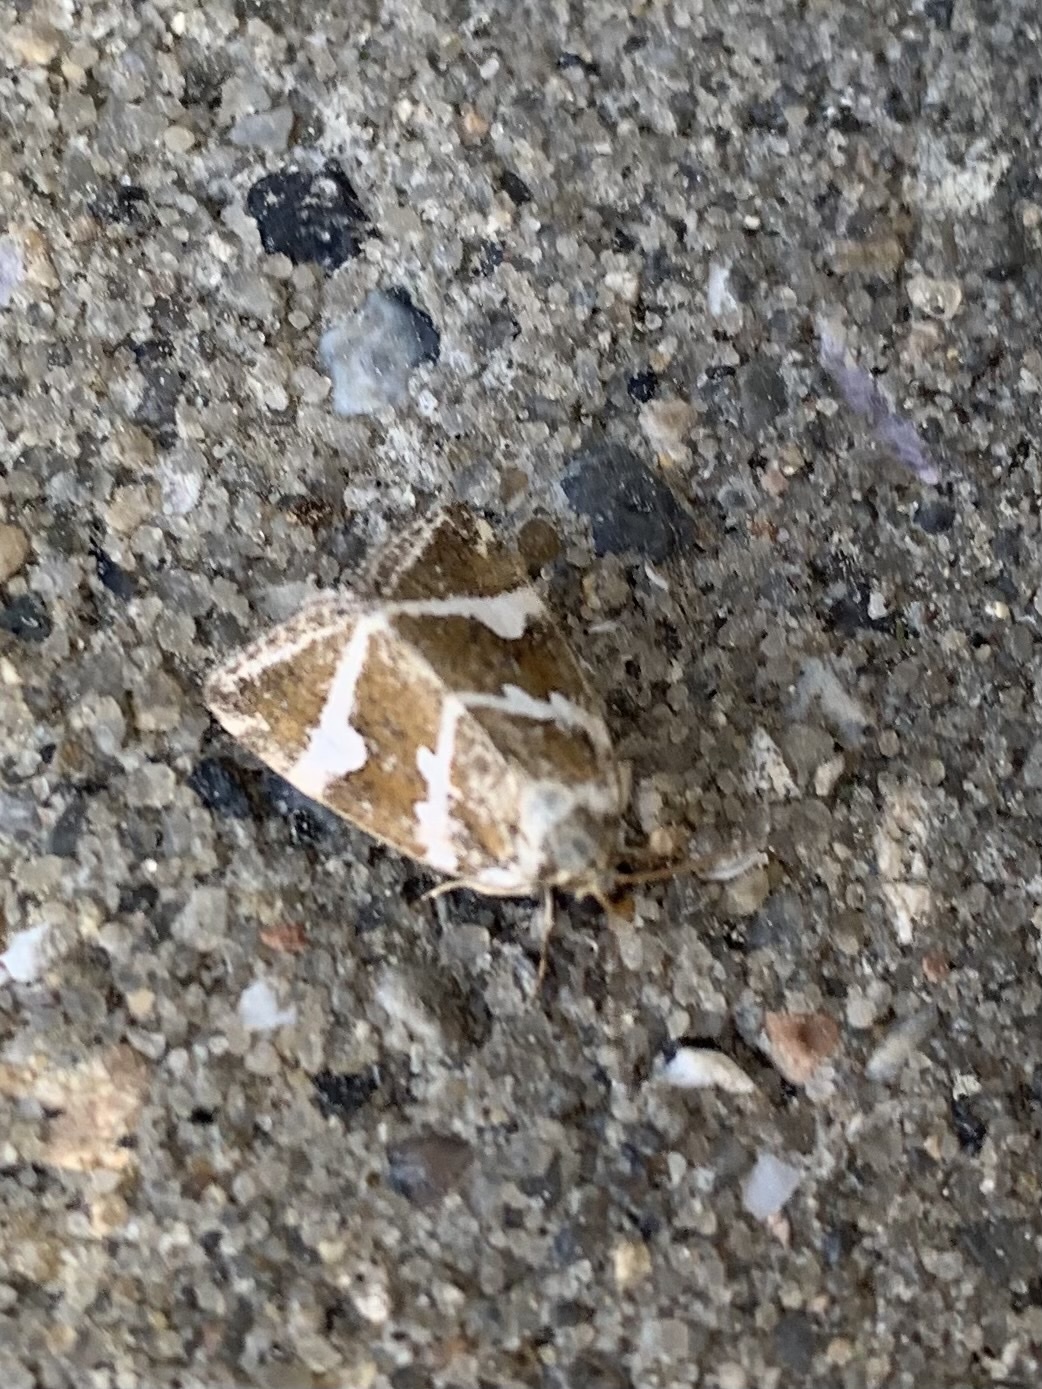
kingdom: Animalia
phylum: Arthropoda
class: Insecta
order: Lepidoptera
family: Noctuidae
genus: Deltote
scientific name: Deltote bankiana
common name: Silver barred
